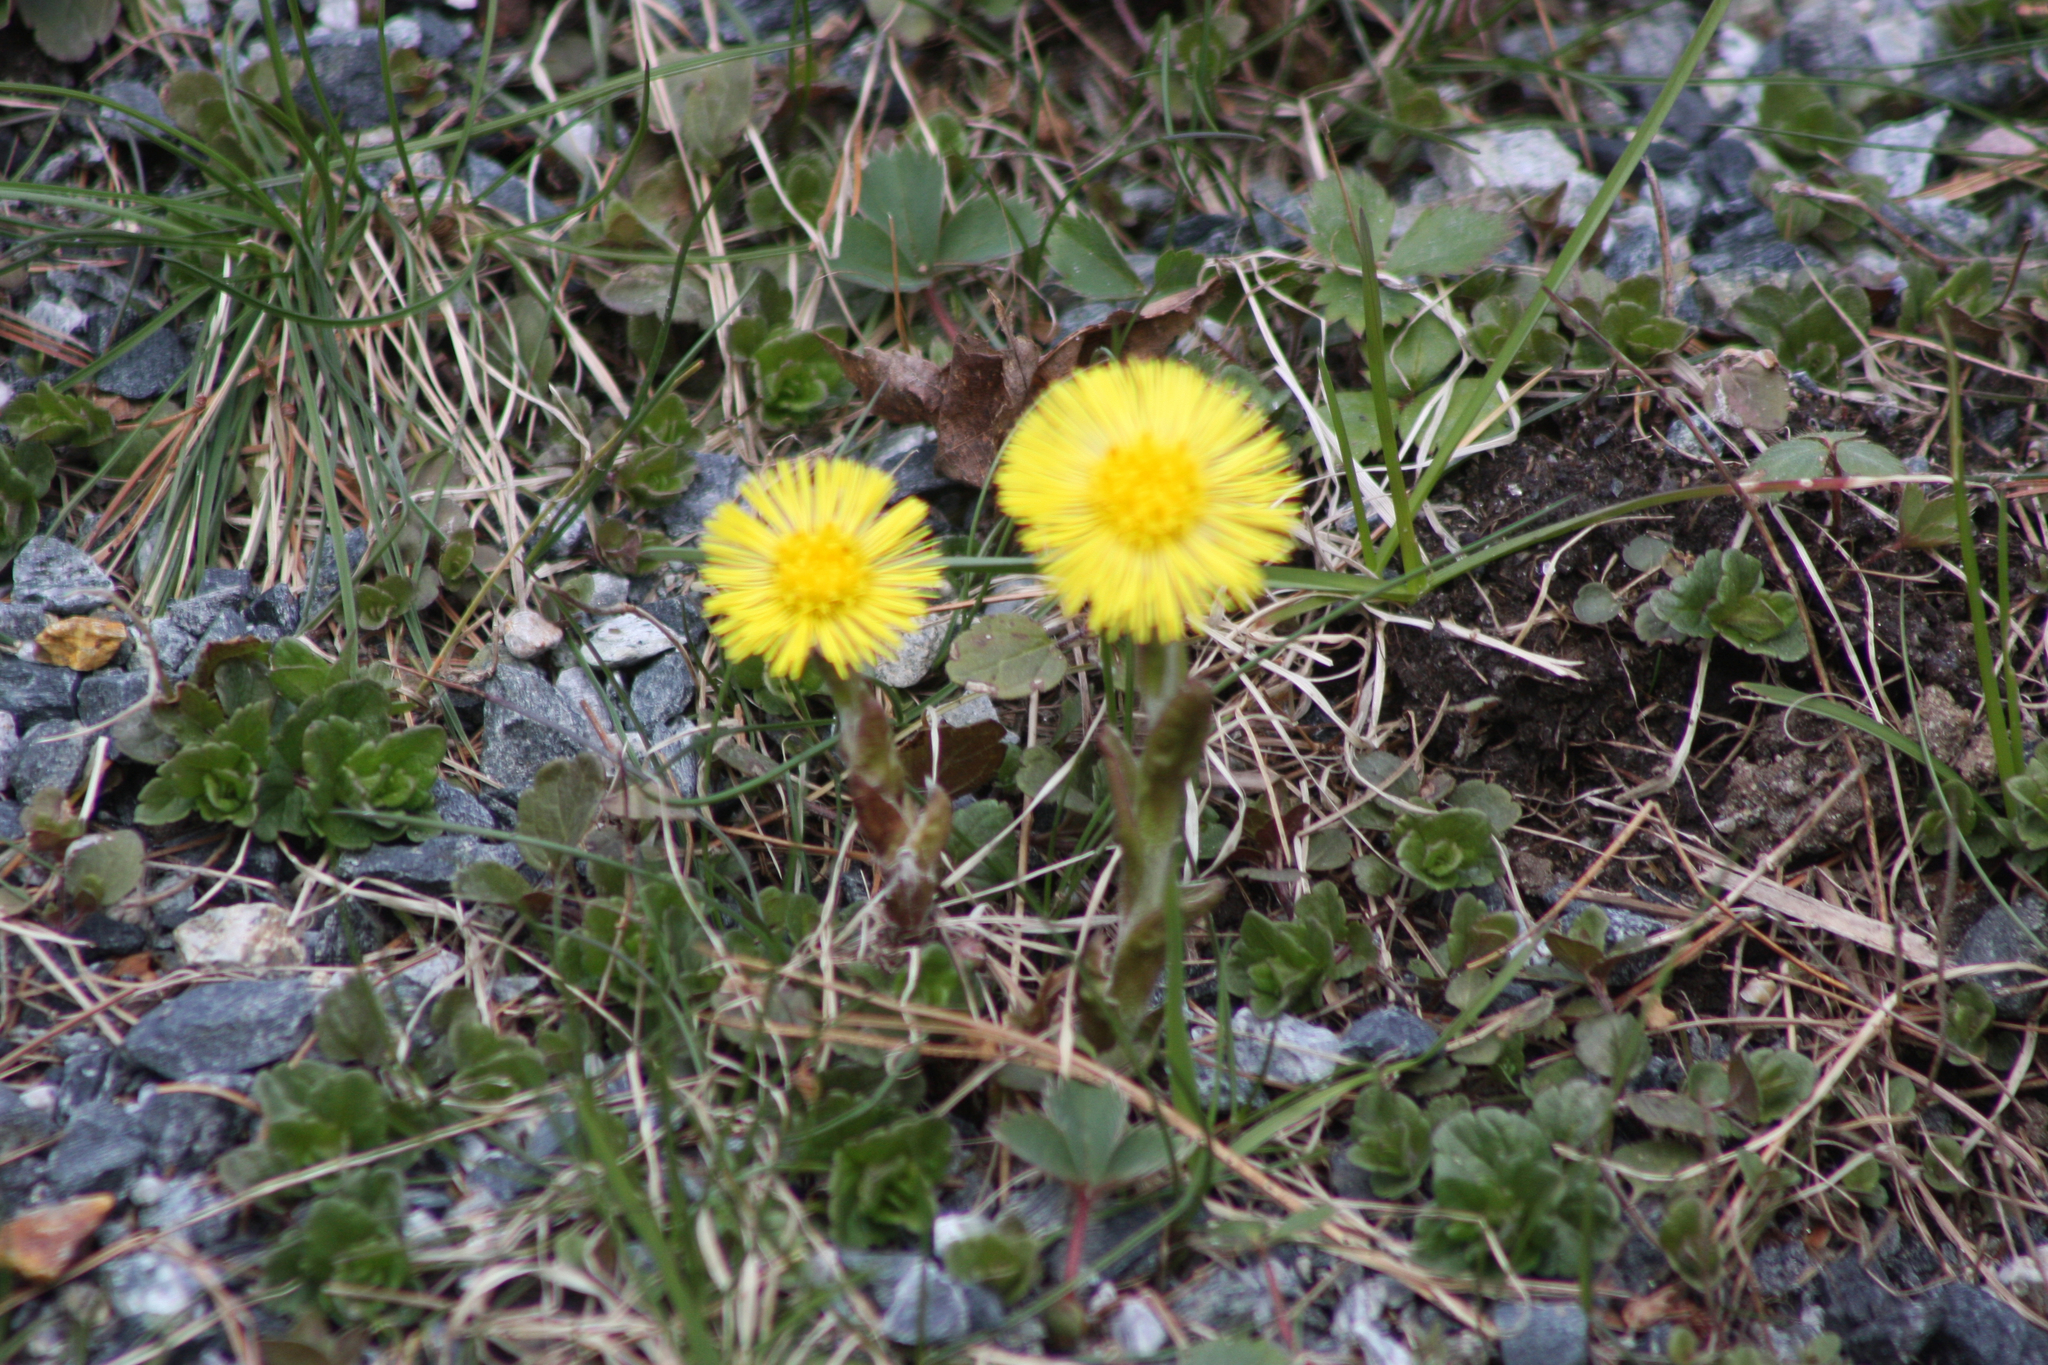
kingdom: Plantae
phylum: Tracheophyta
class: Magnoliopsida
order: Asterales
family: Asteraceae
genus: Tussilago
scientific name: Tussilago farfara
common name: Coltsfoot
